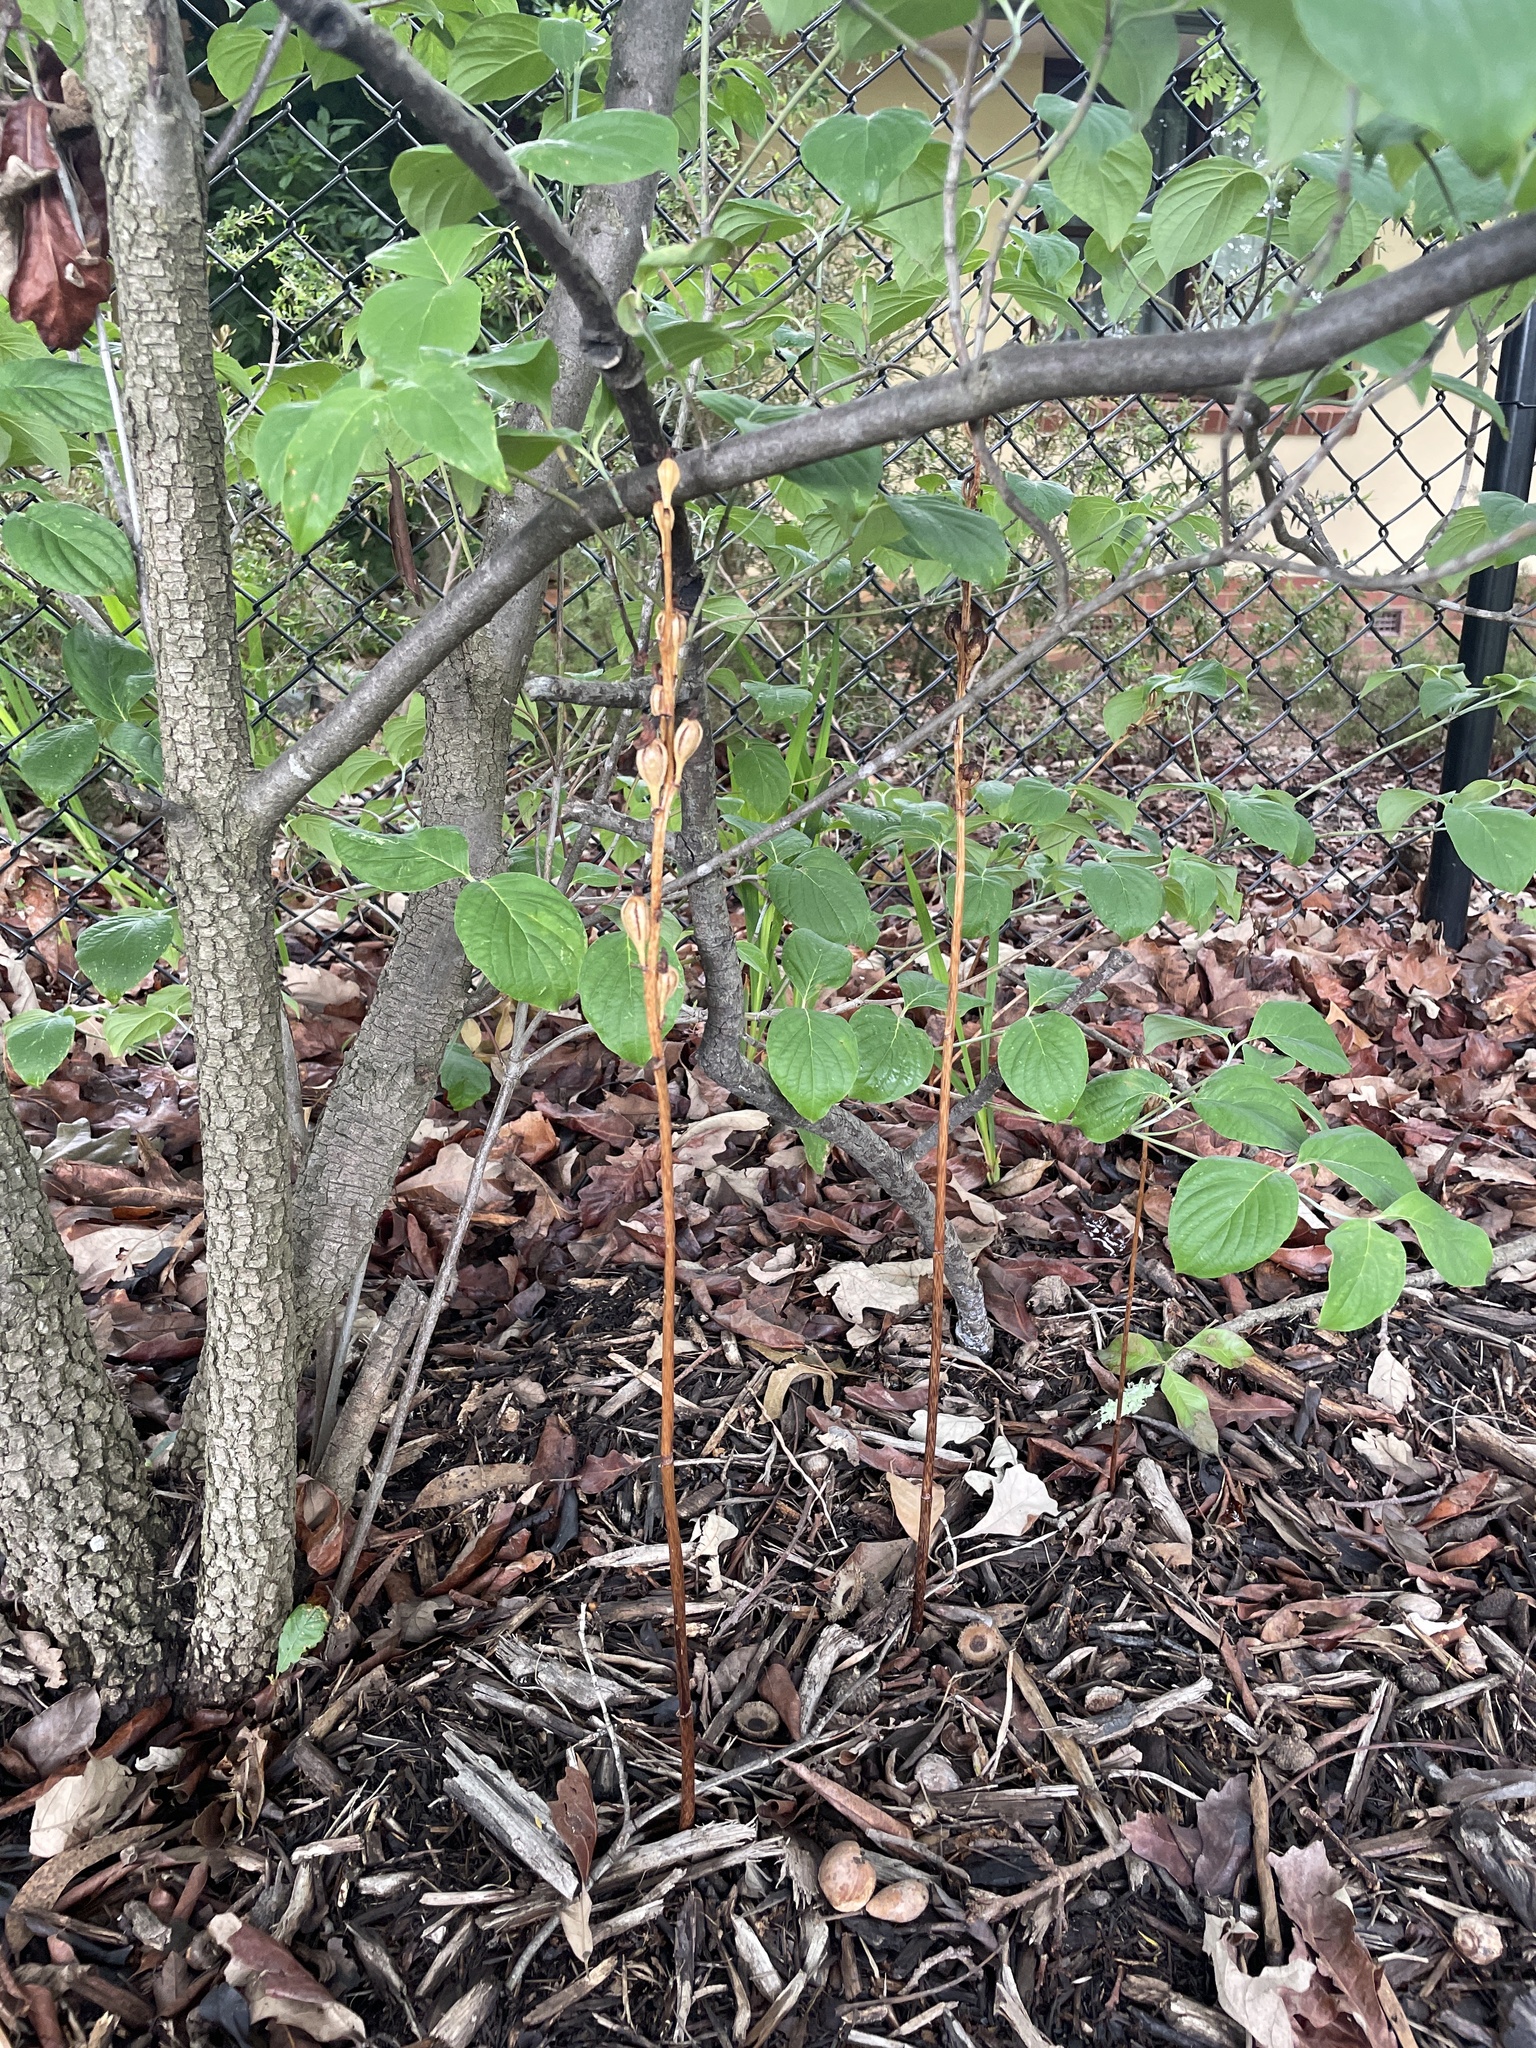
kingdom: Plantae
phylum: Tracheophyta
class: Liliopsida
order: Asparagales
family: Orchidaceae
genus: Gastrodia
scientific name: Gastrodia sesamoides
